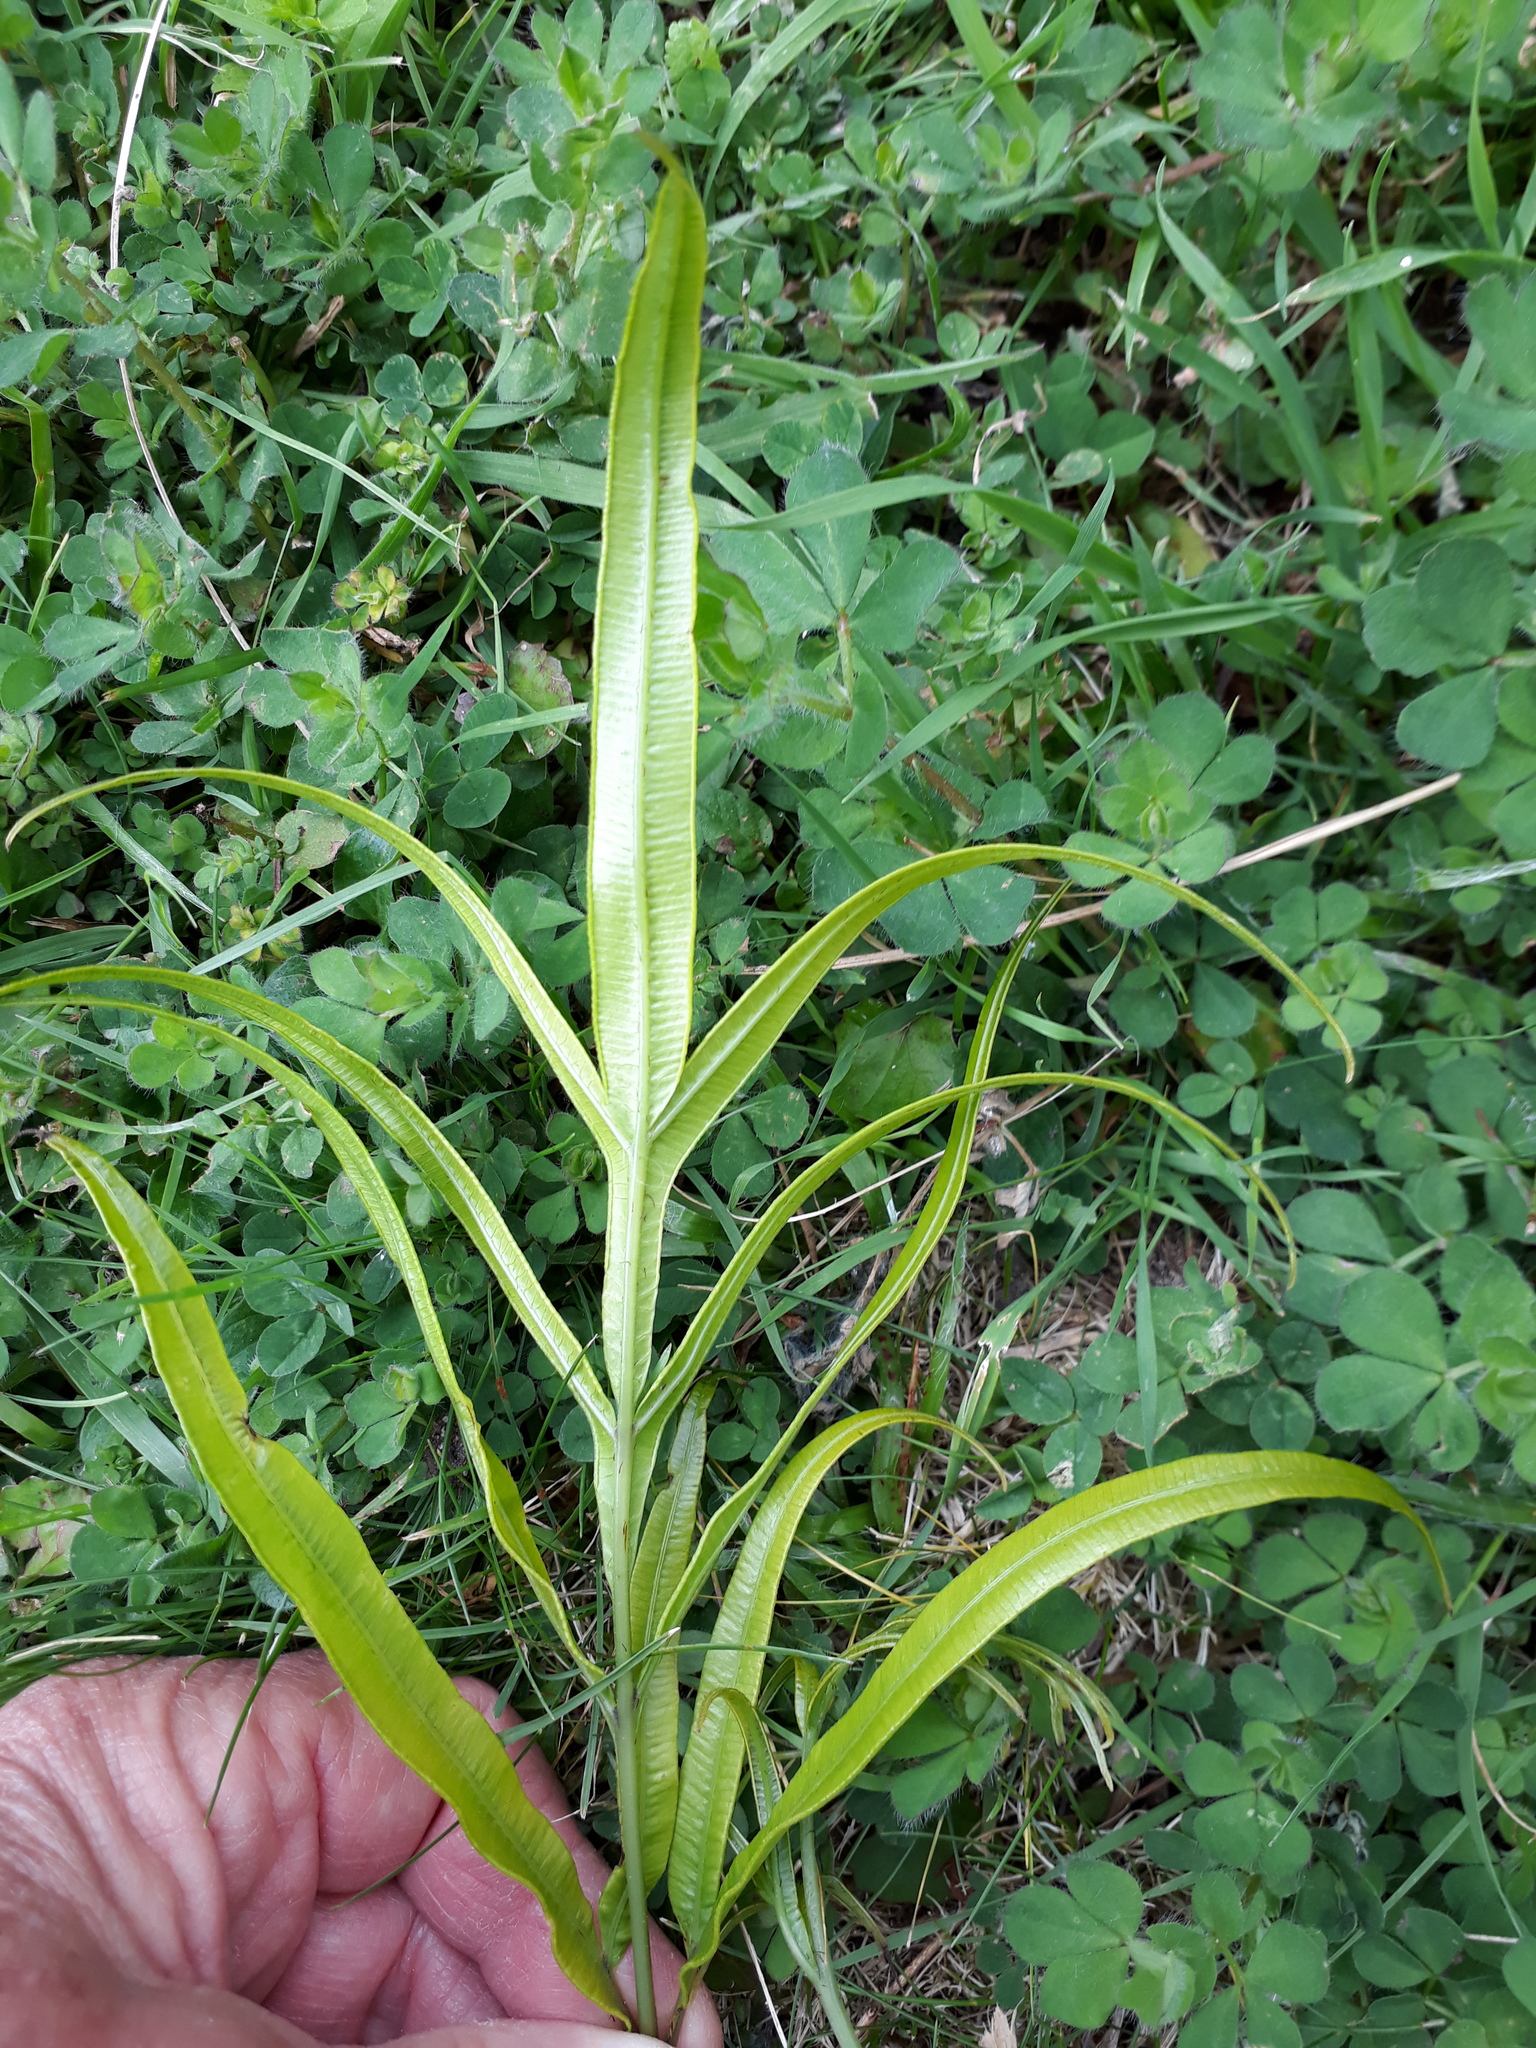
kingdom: Plantae
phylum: Tracheophyta
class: Polypodiopsida
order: Polypodiales
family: Pteridaceae
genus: Pteris
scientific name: Pteris cretica
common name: Ribbon fern
